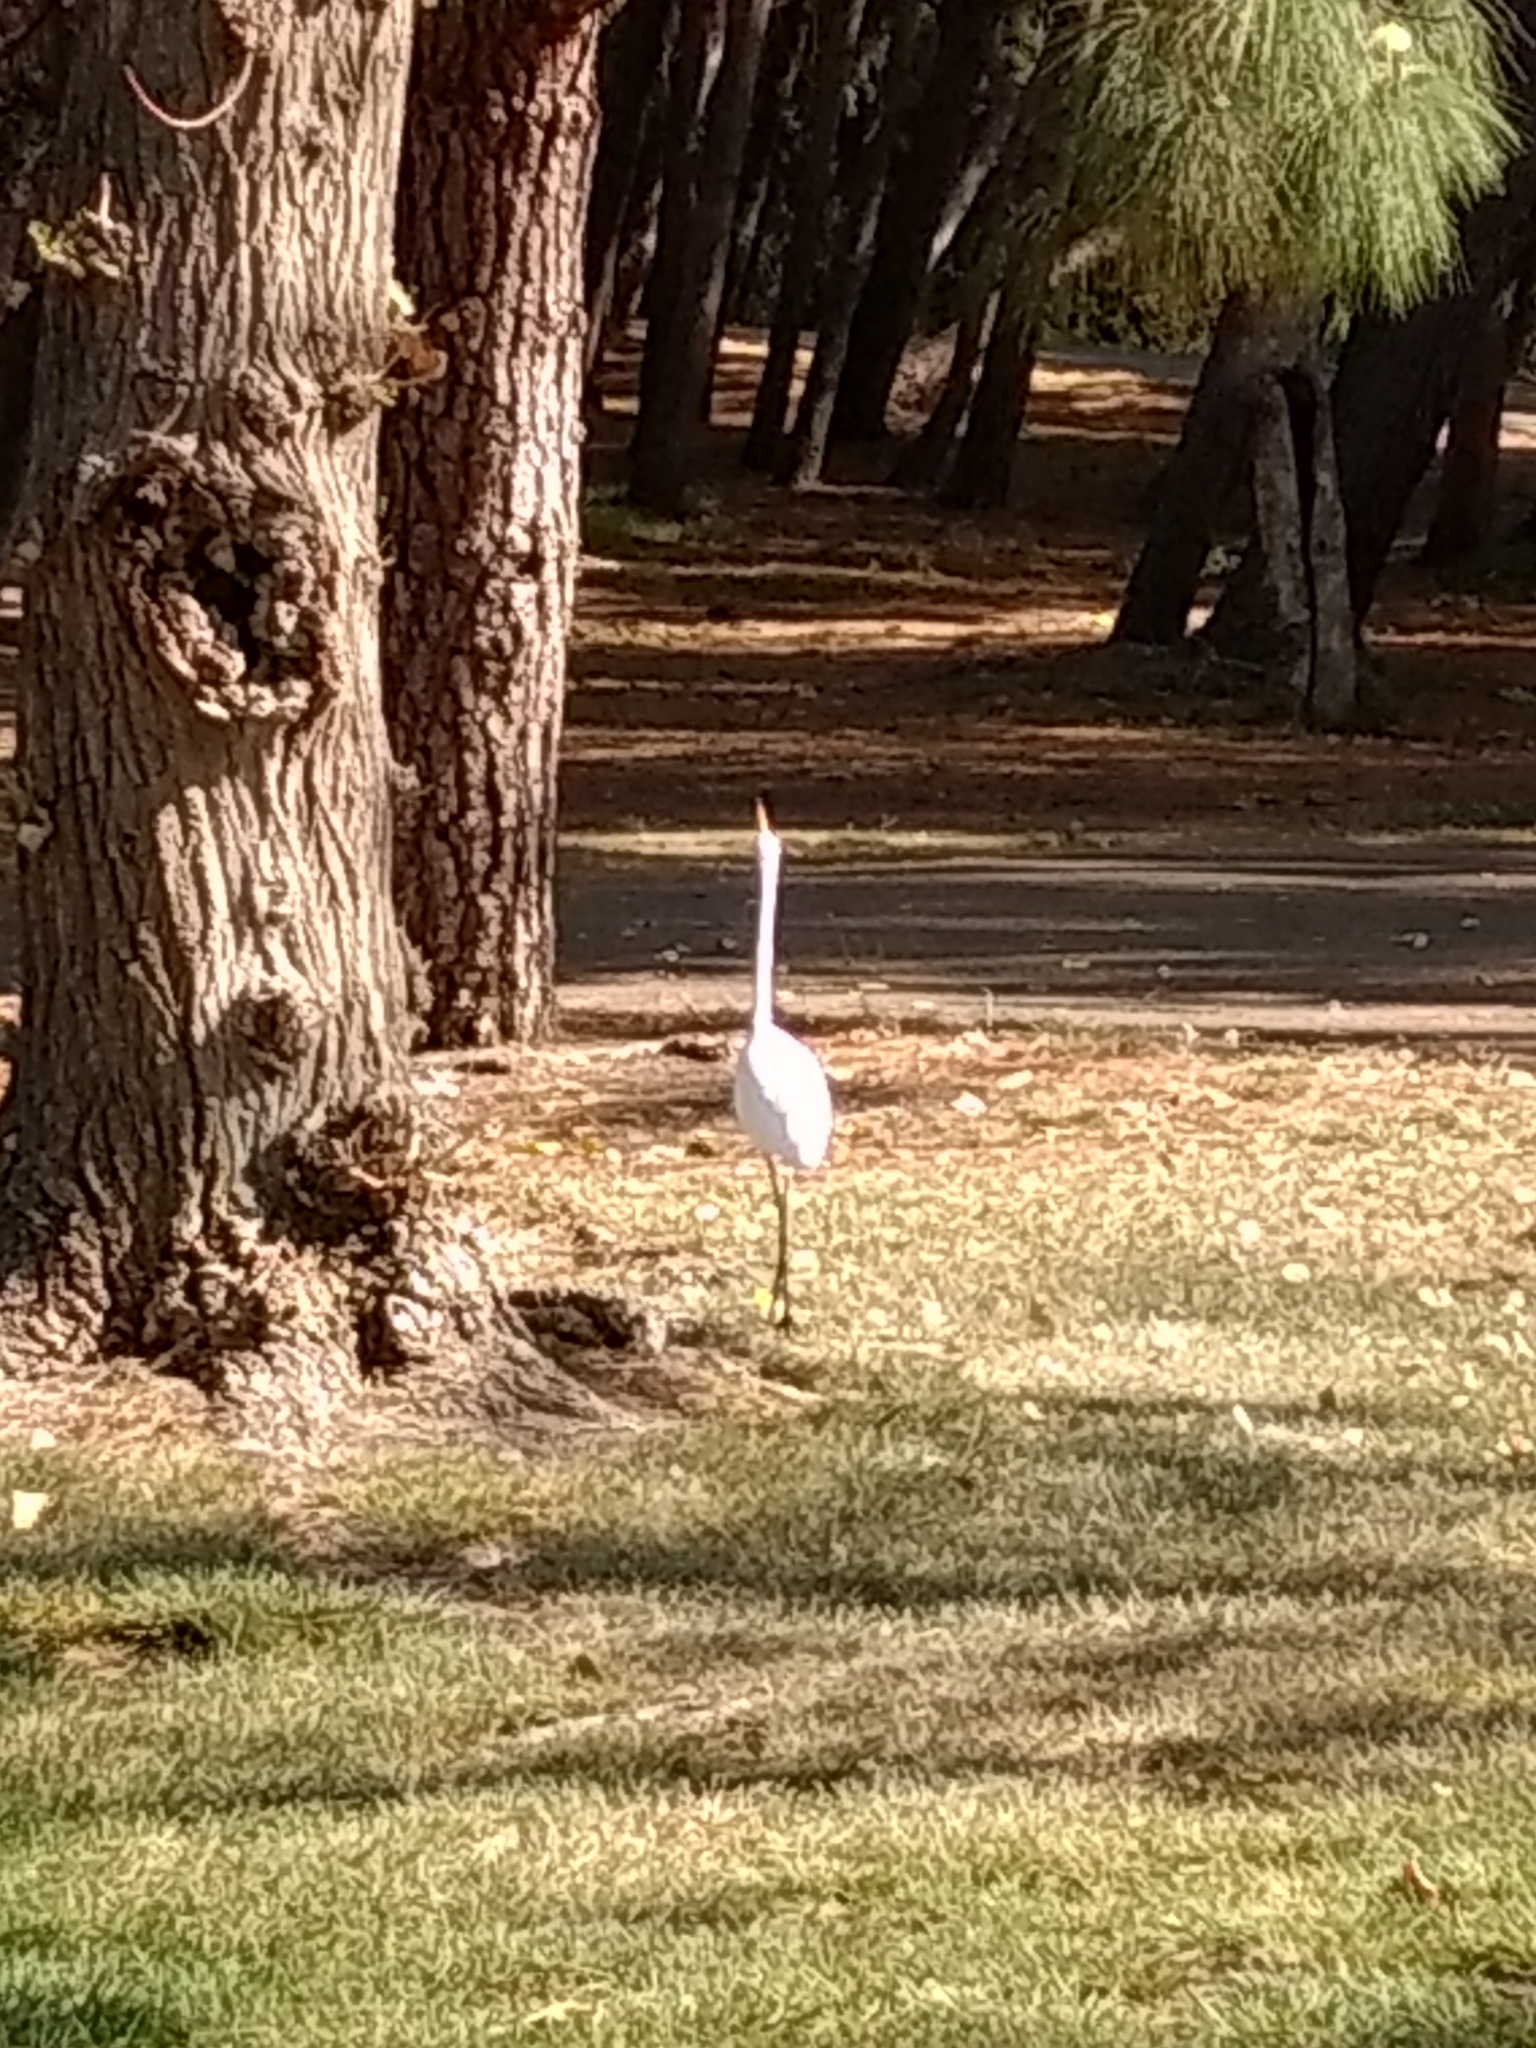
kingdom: Animalia
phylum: Chordata
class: Aves
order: Pelecaniformes
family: Ardeidae
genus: Ardea
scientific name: Ardea alba
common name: Great egret
